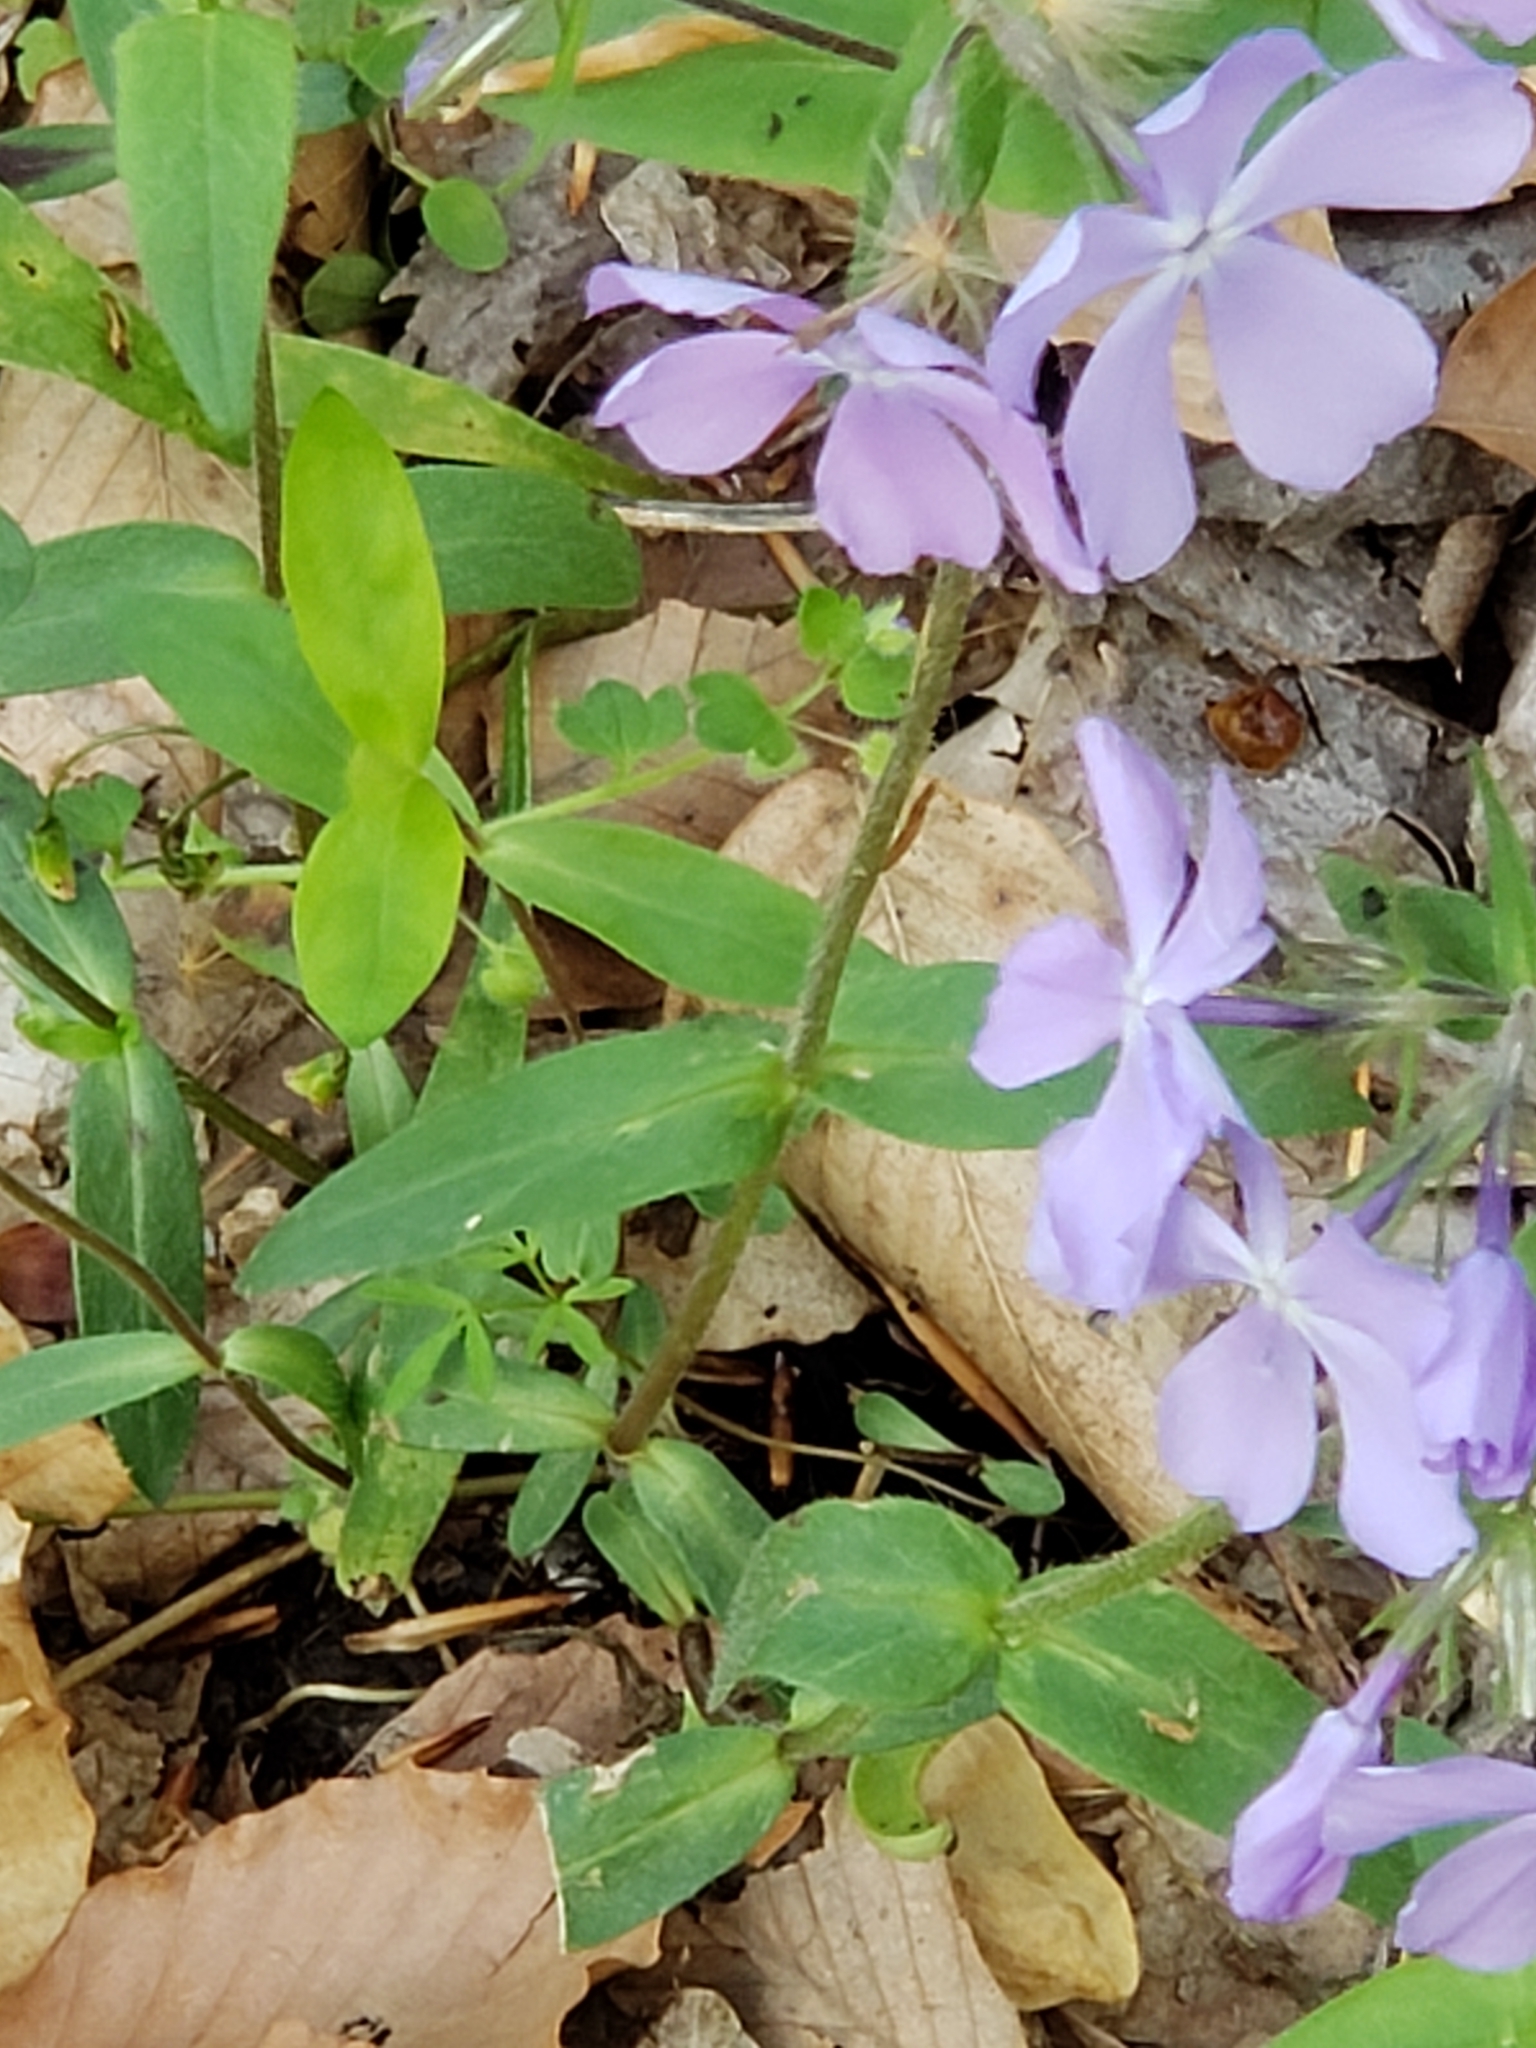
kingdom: Plantae
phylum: Tracheophyta
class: Magnoliopsida
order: Ericales
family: Polemoniaceae
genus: Phlox
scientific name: Phlox divaricata
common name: Blue phlox
